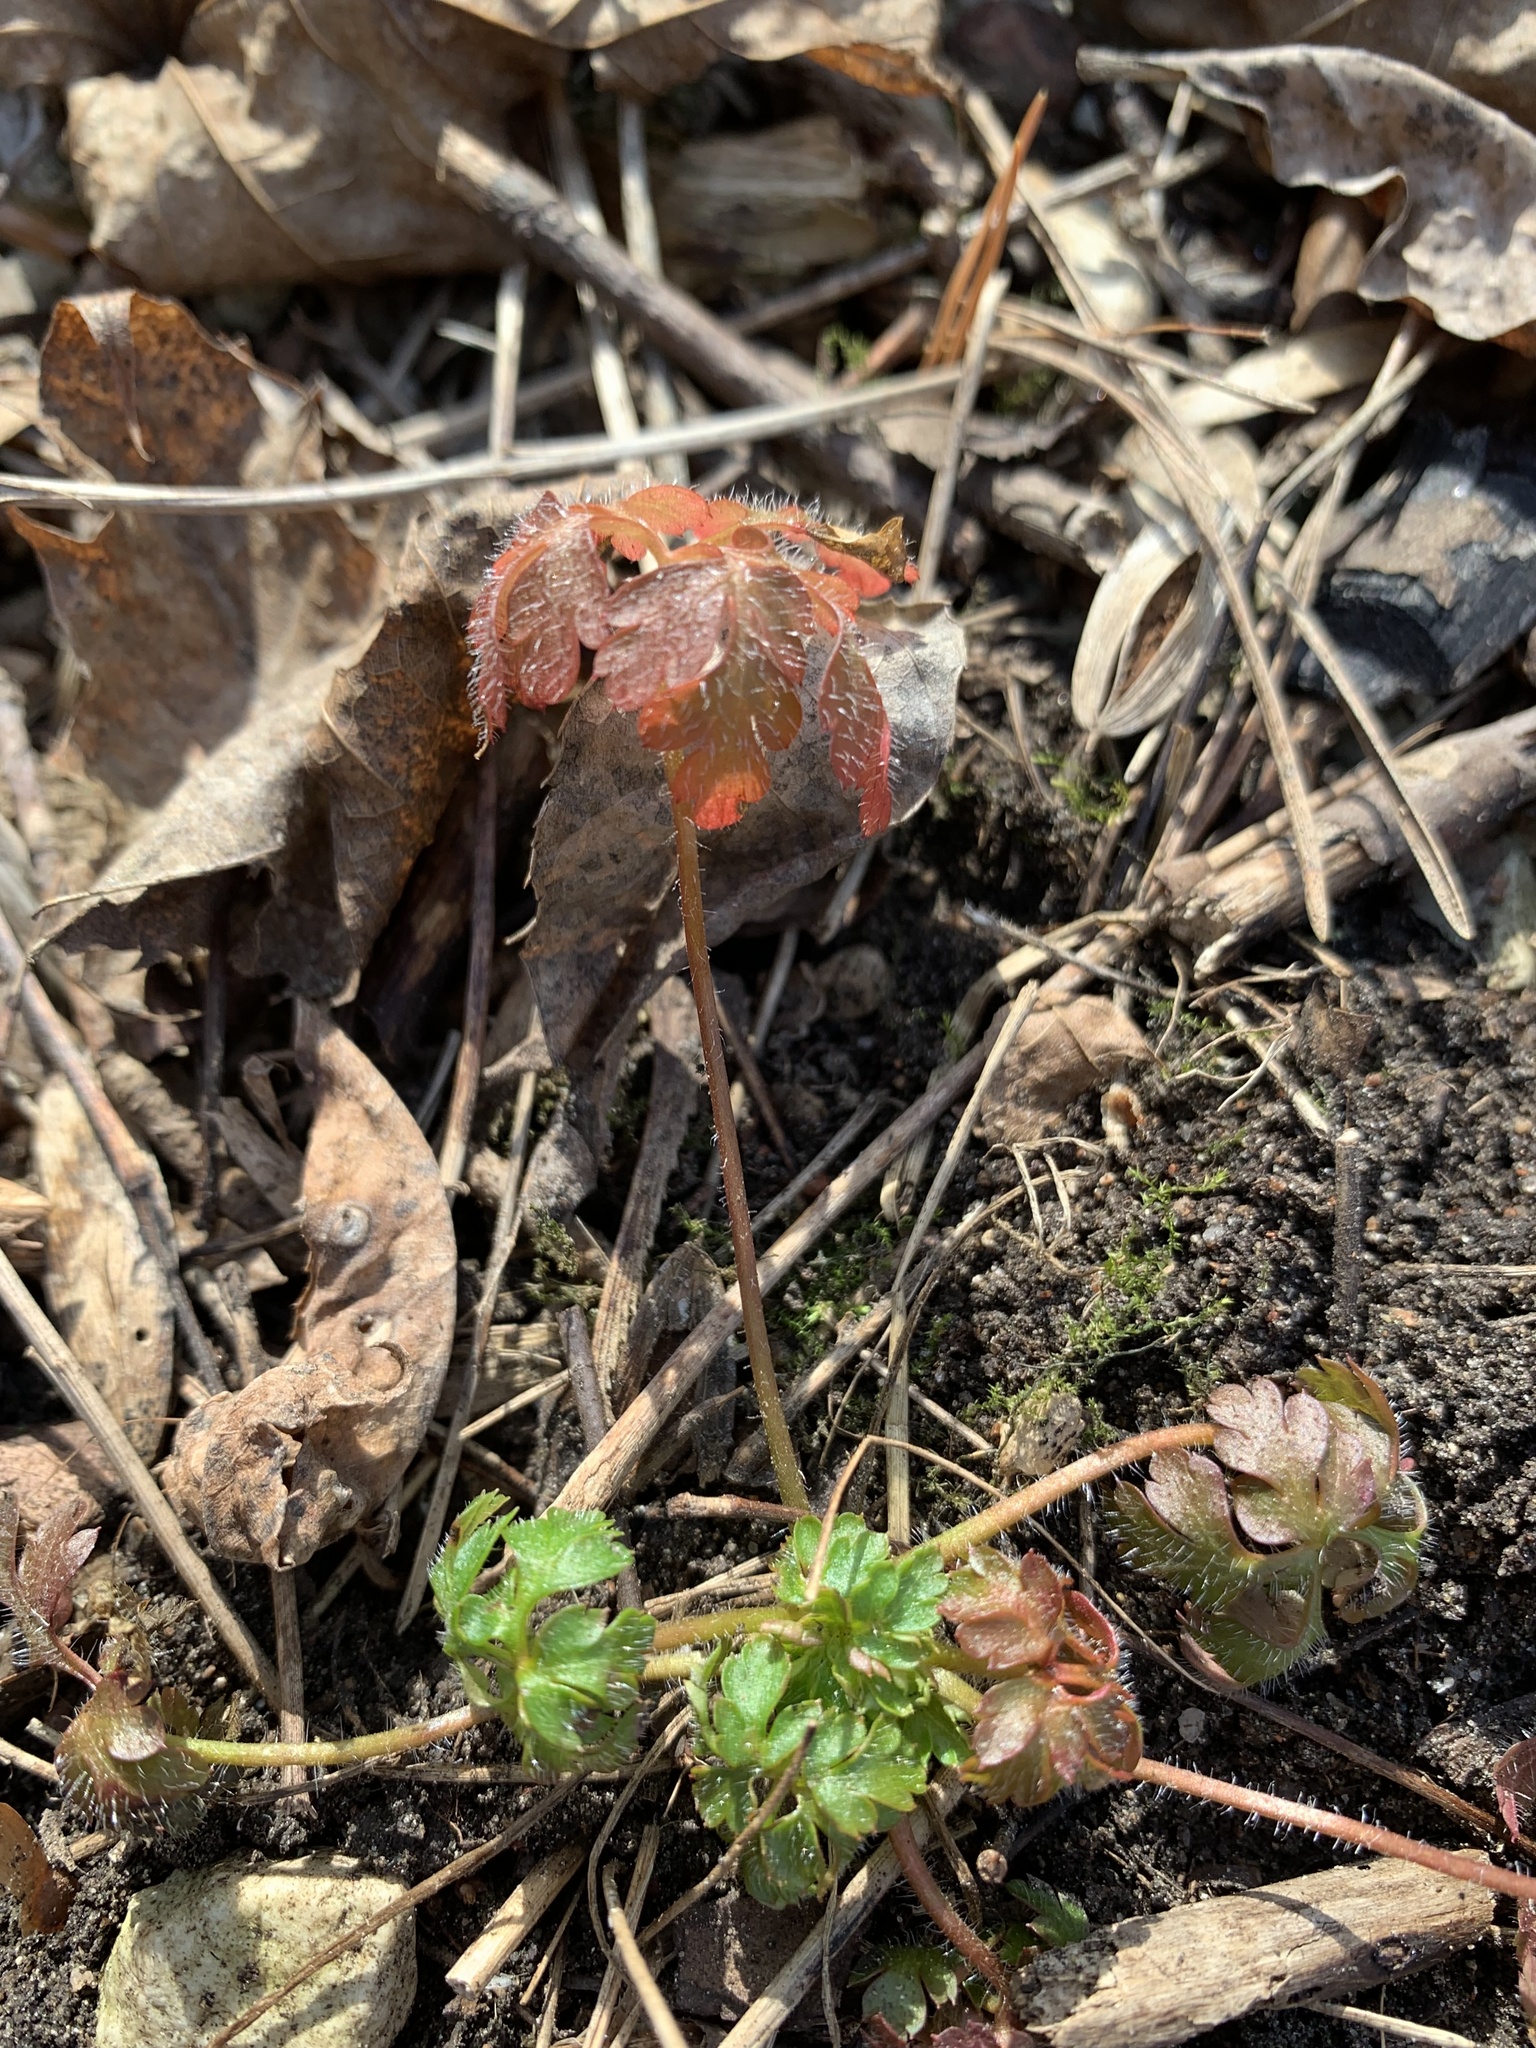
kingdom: Plantae
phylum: Tracheophyta
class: Magnoliopsida
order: Geraniales
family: Geraniaceae
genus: Geranium
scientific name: Geranium robertianum
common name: Herb-robert
